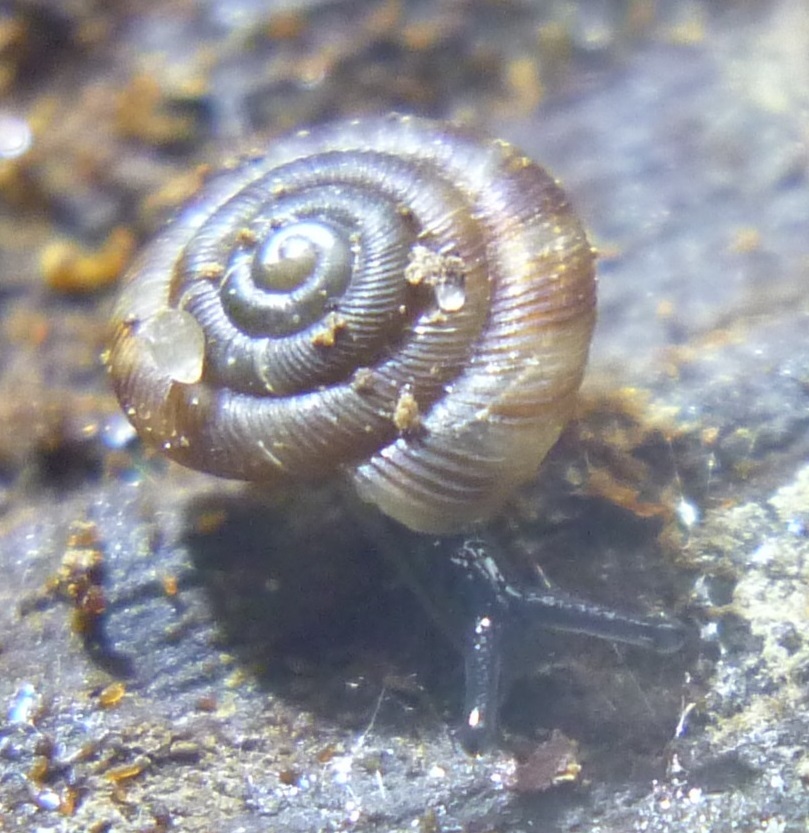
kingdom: Animalia
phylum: Mollusca
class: Gastropoda
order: Stylommatophora
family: Discidae
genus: Discus
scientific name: Discus rotundatus
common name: Rounded snail
